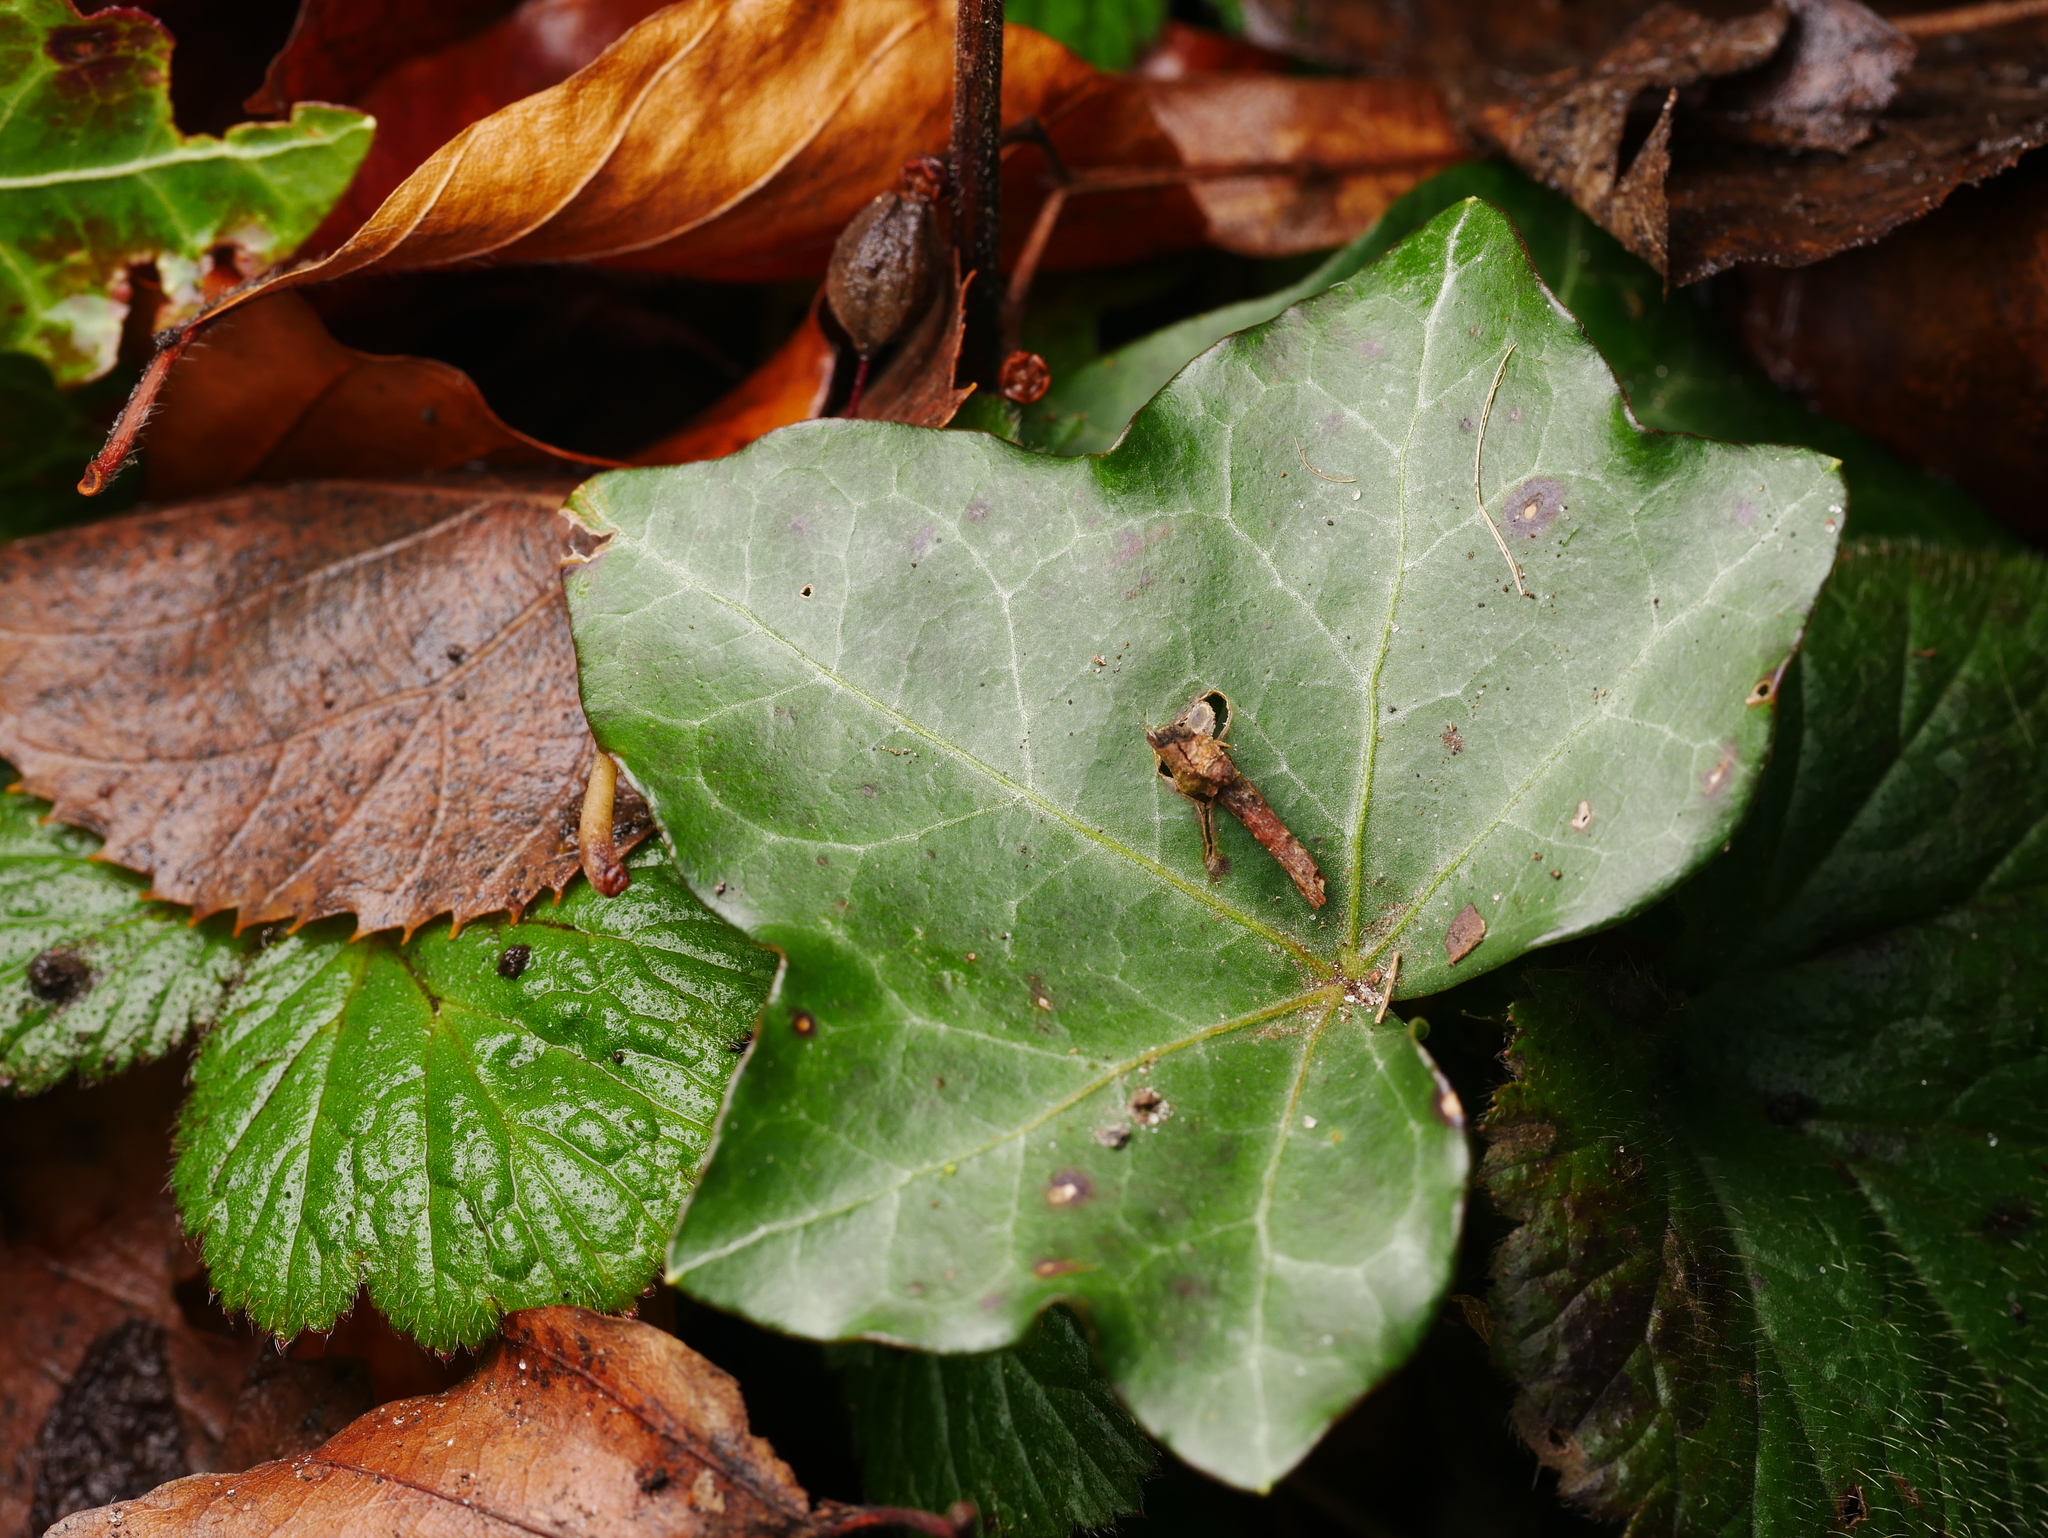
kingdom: Plantae
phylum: Tracheophyta
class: Magnoliopsida
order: Apiales
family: Araliaceae
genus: Hedera
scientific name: Hedera helix
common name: Ivy
